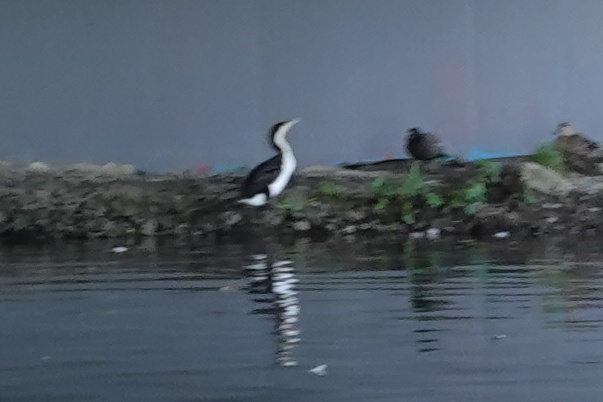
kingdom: Animalia
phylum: Chordata
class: Aves
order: Suliformes
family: Phalacrocoracidae
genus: Phalacrocorax
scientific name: Phalacrocorax varius
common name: Pied cormorant
